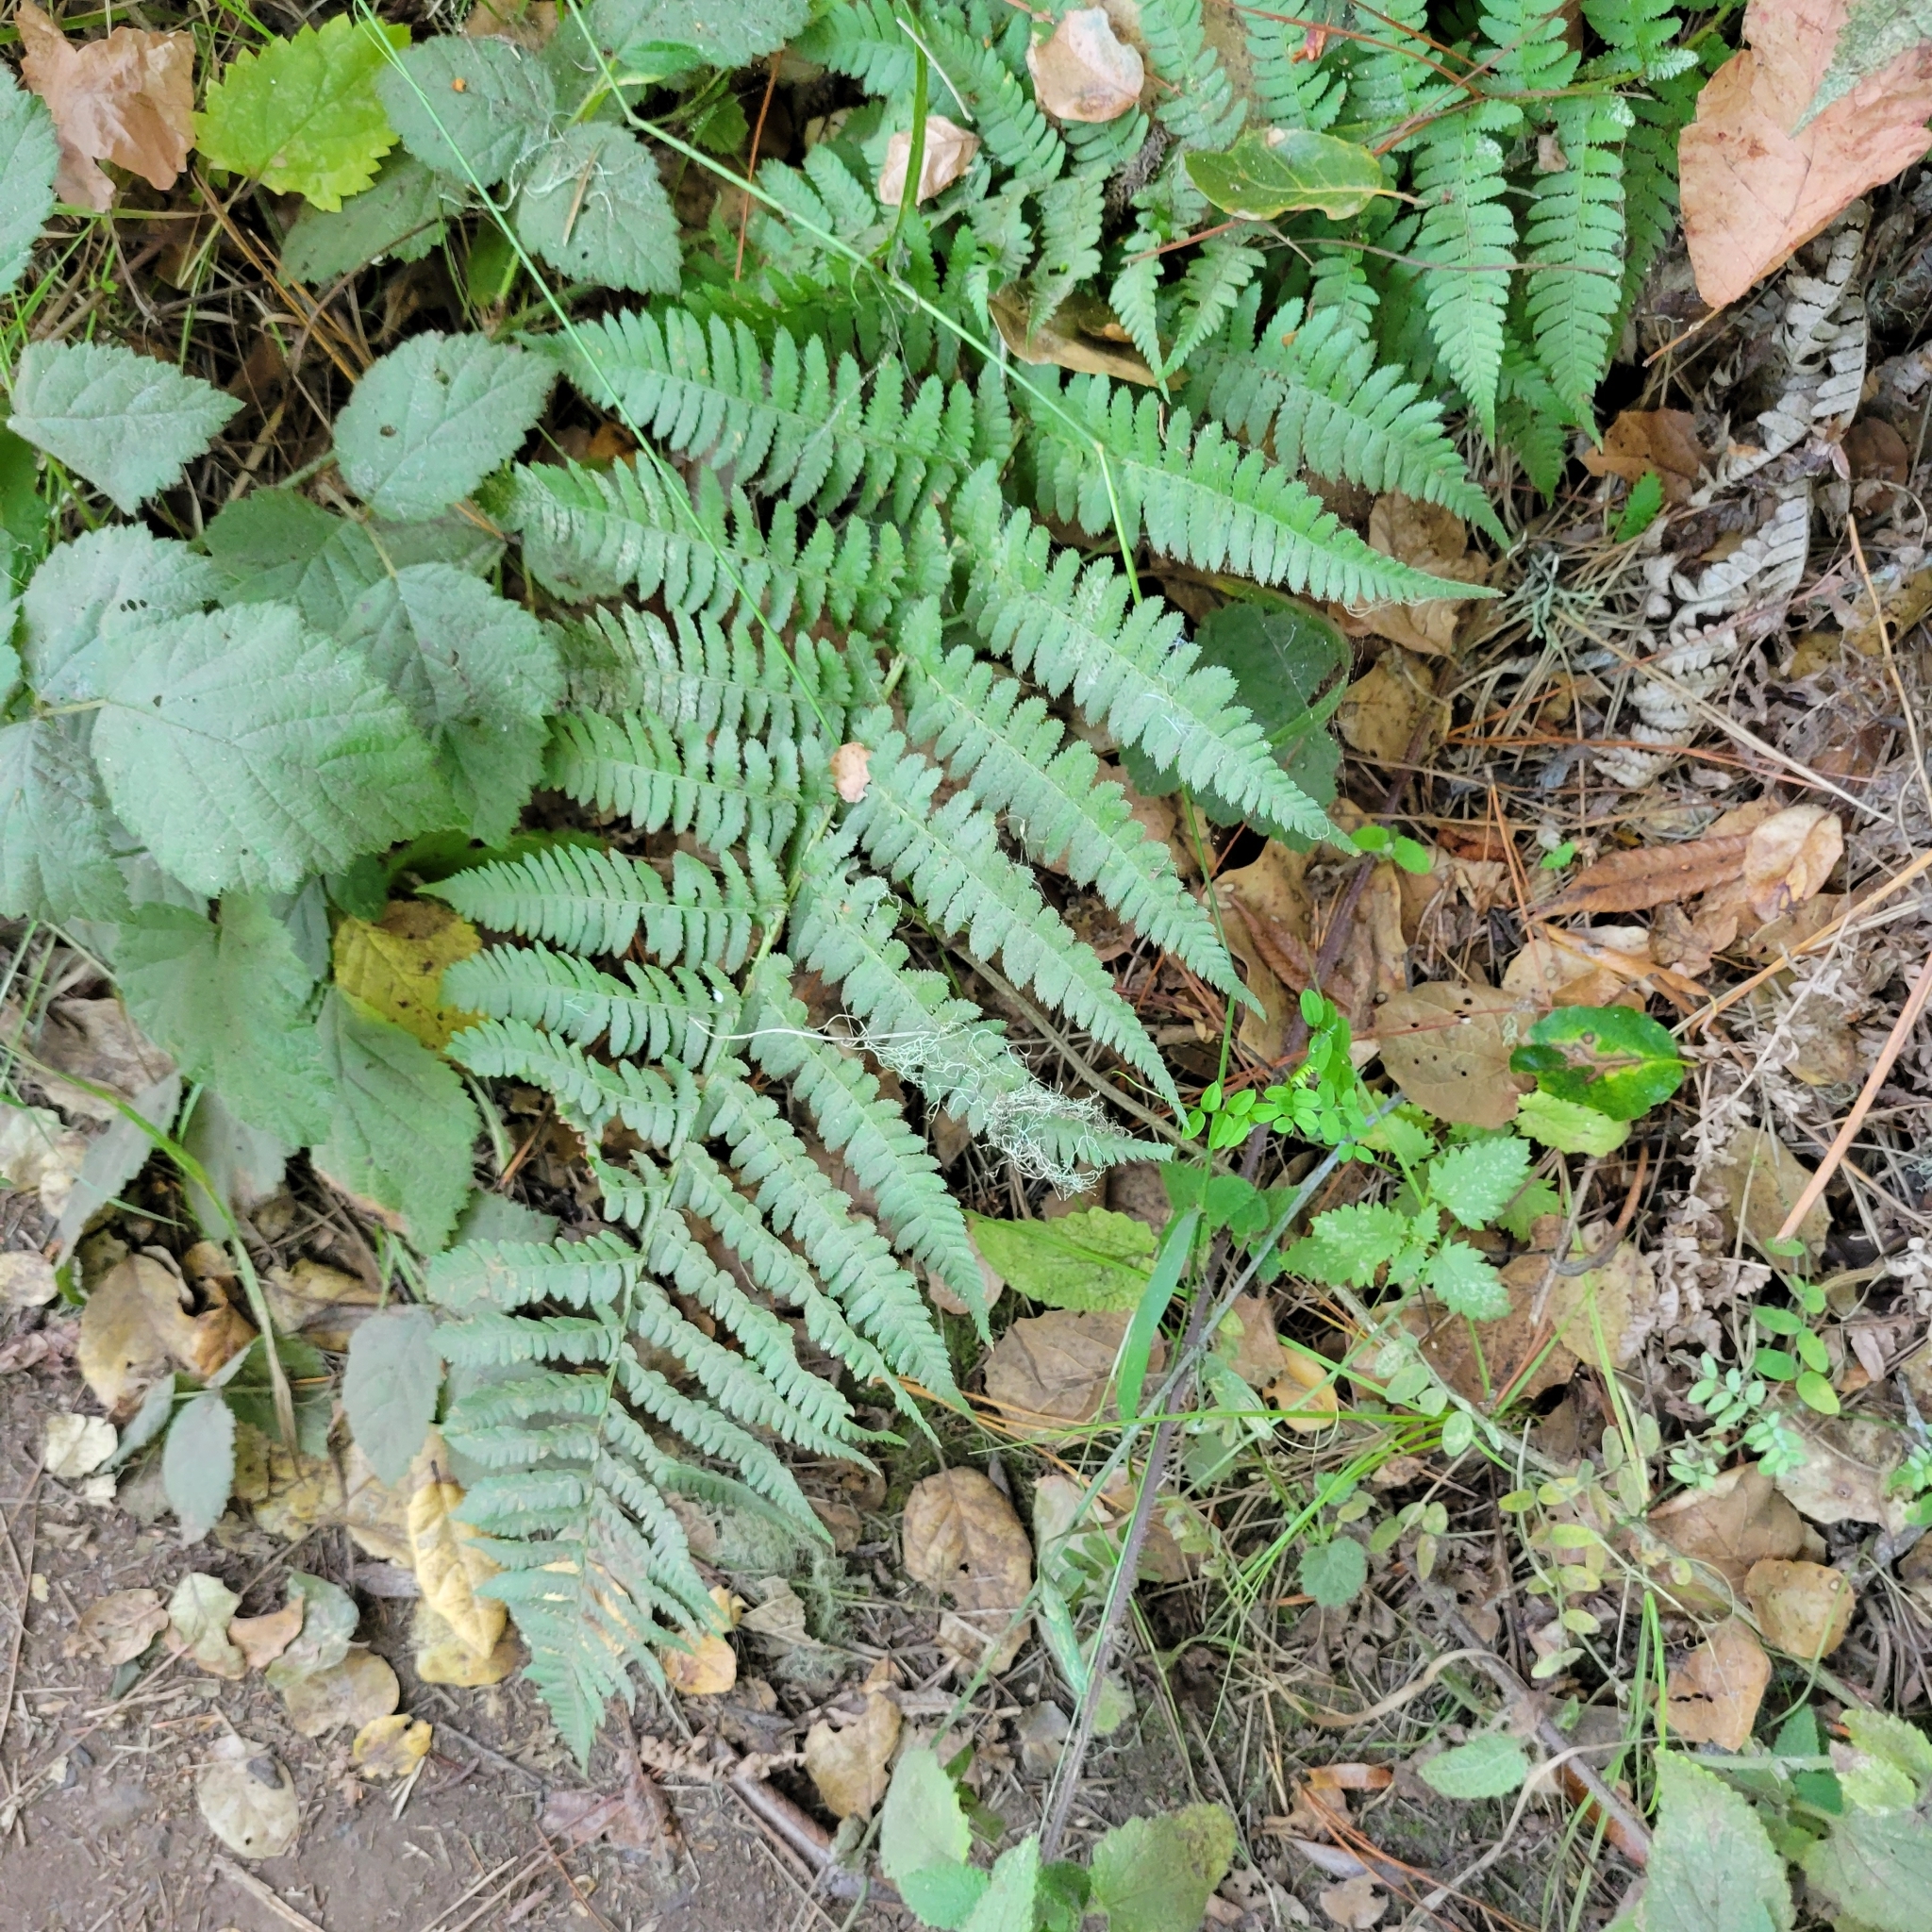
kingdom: Plantae
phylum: Tracheophyta
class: Polypodiopsida
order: Polypodiales
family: Dryopteridaceae
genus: Dryopteris
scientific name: Dryopteris arguta
